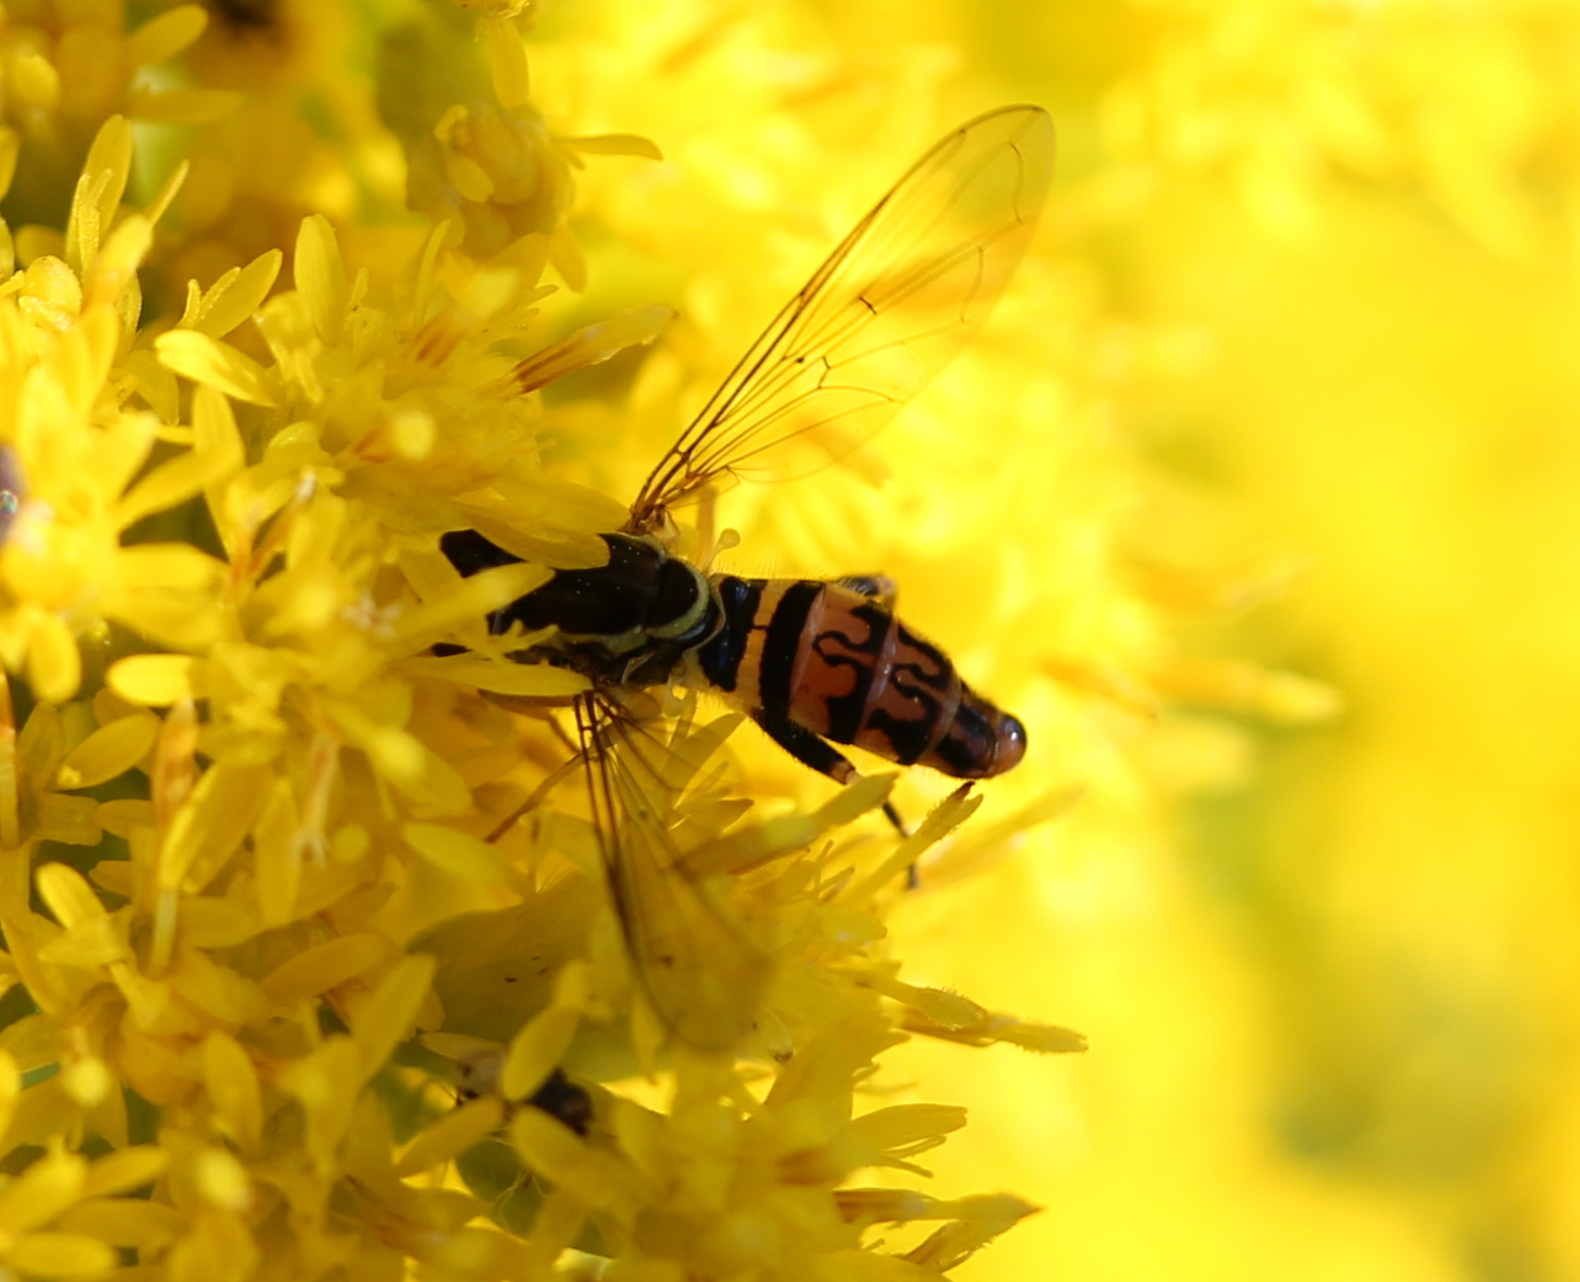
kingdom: Animalia
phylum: Arthropoda
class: Insecta
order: Diptera
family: Syrphidae
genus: Toxomerus
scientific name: Toxomerus geminatus
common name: Eastern calligrapher
